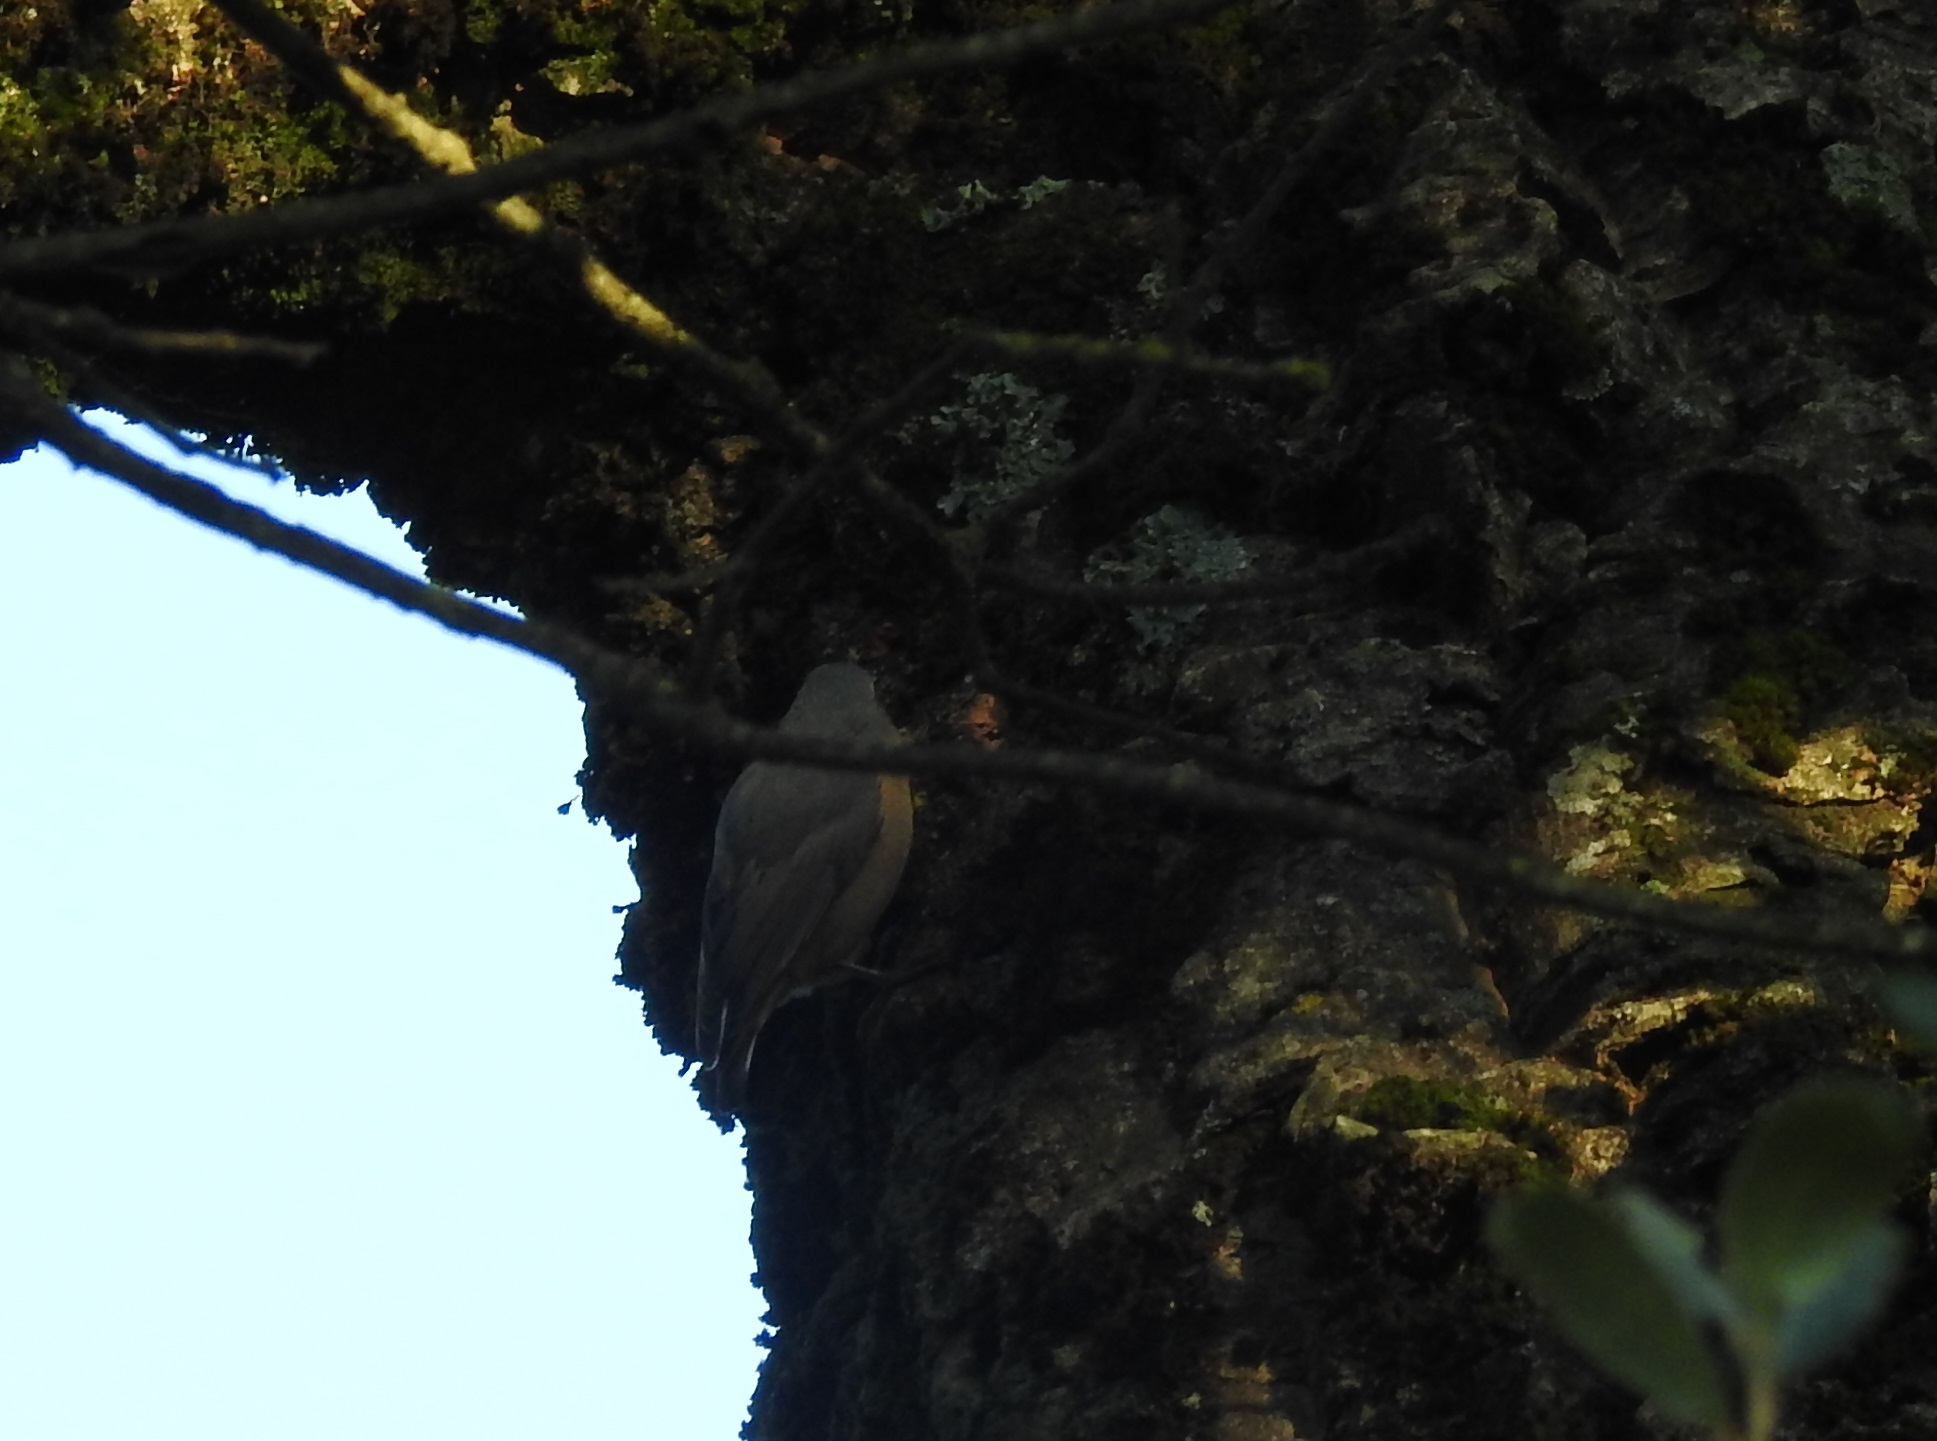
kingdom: Animalia
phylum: Chordata
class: Aves
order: Passeriformes
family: Sittidae
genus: Sitta
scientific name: Sitta ledanti
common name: Algerian nuthatch
